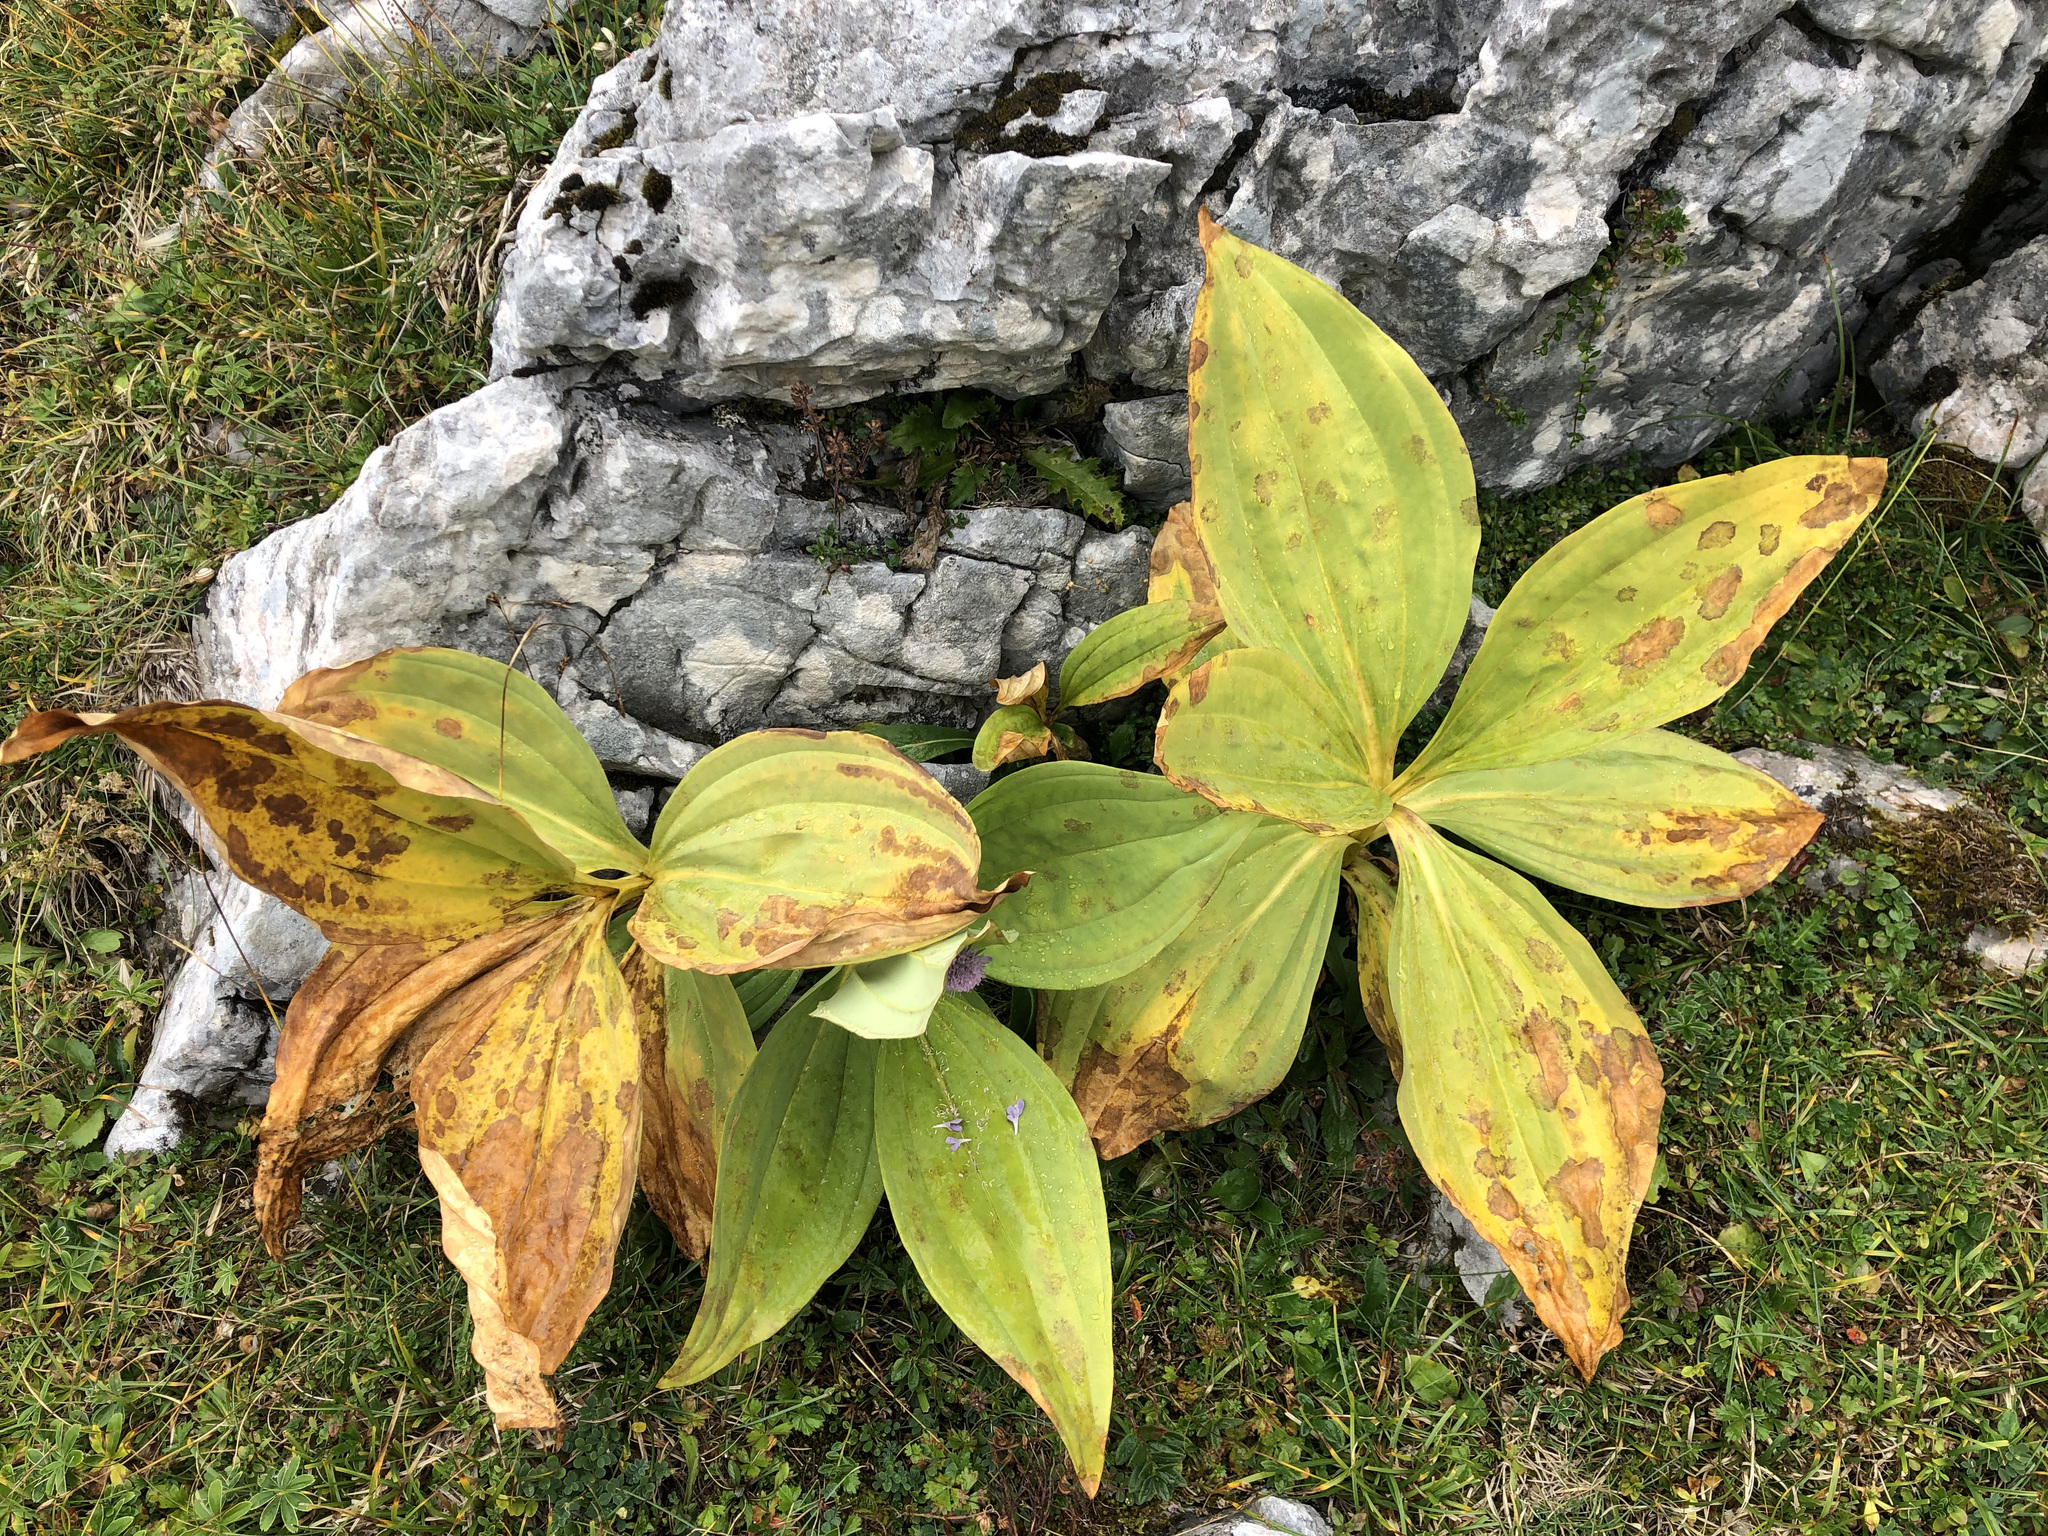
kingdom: Plantae
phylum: Tracheophyta
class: Magnoliopsida
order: Gentianales
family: Gentianaceae
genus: Gentiana
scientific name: Gentiana lutea
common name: Great yellow gentian
